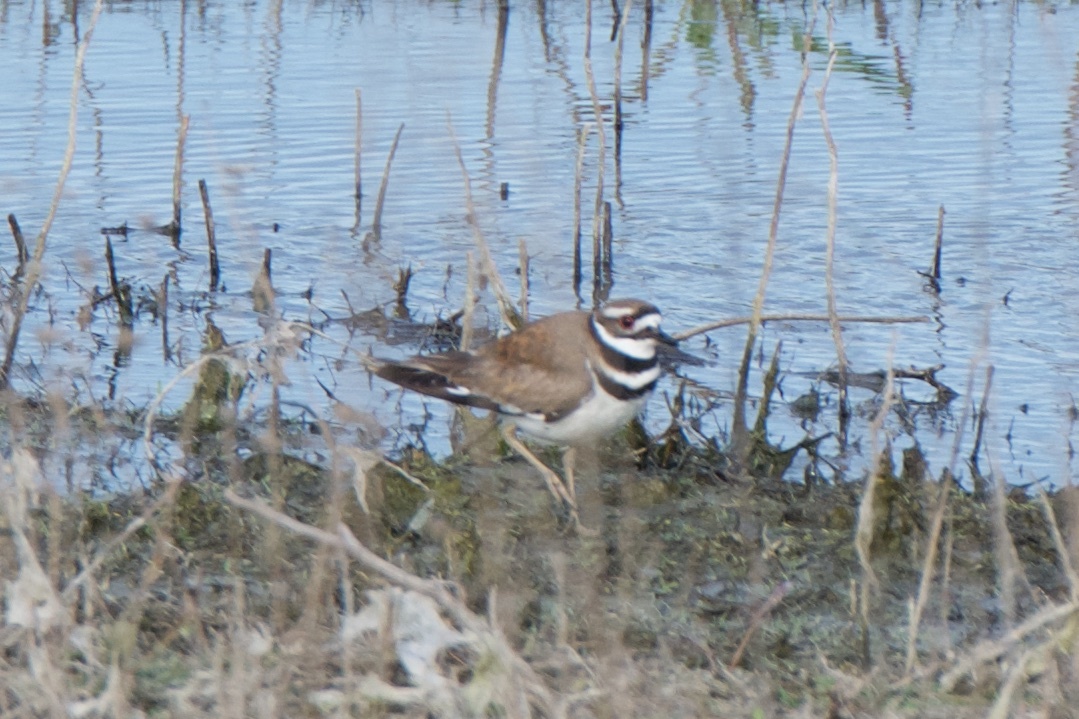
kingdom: Animalia
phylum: Chordata
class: Aves
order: Charadriiformes
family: Charadriidae
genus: Charadrius
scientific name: Charadrius vociferus
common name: Killdeer
